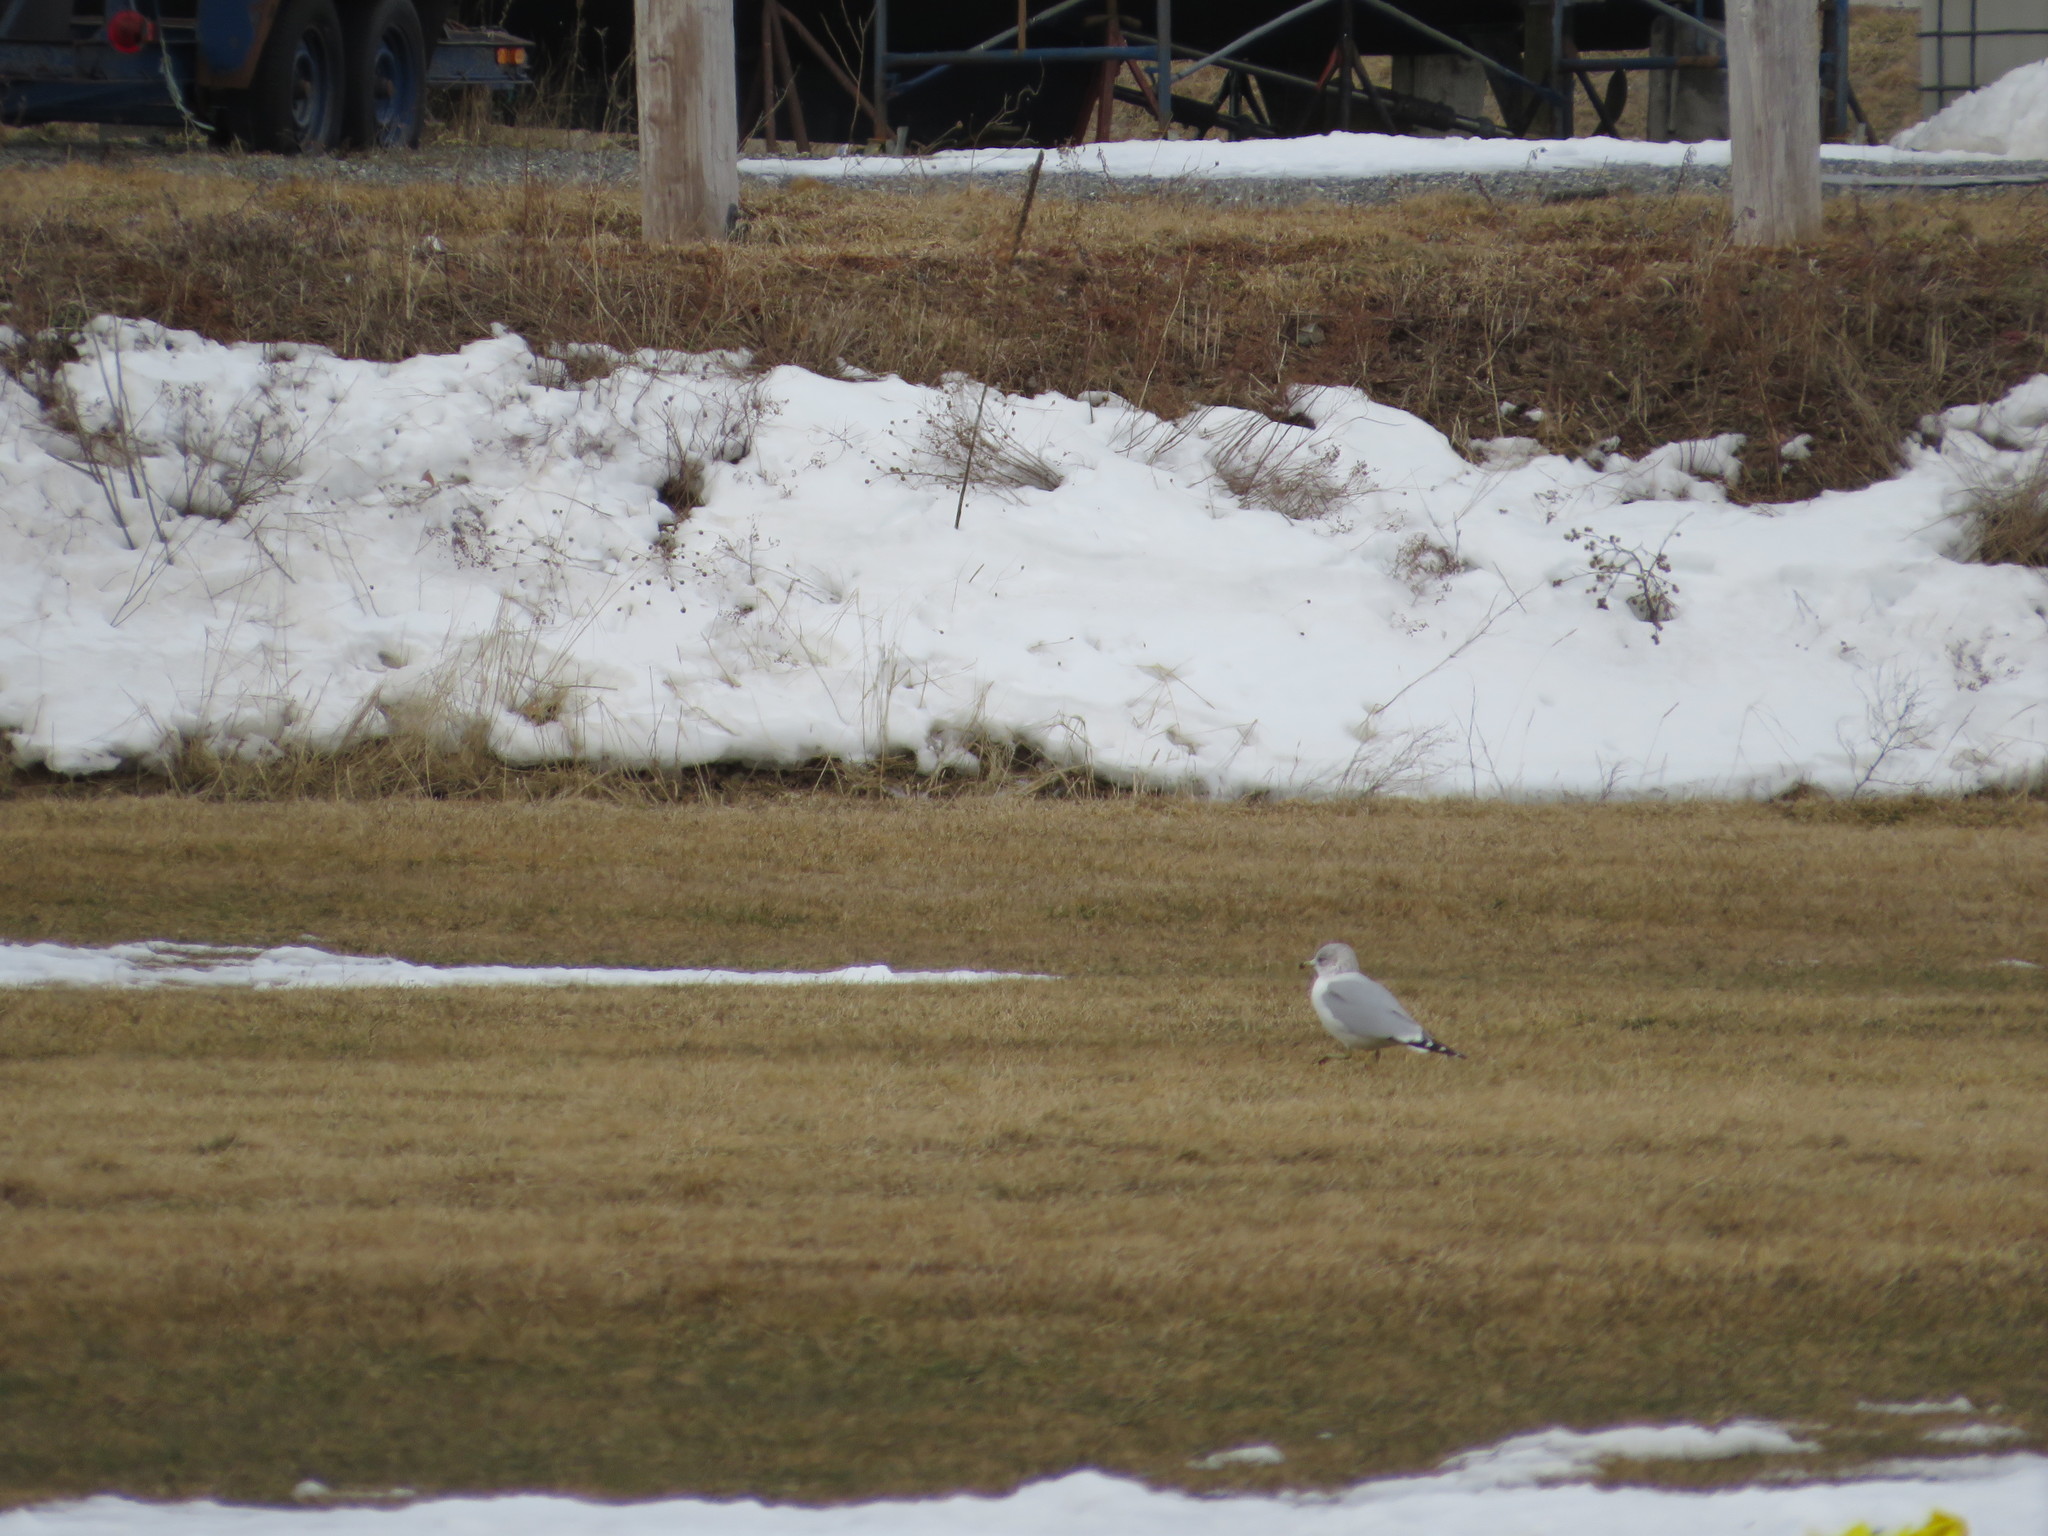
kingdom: Animalia
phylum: Chordata
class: Aves
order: Charadriiformes
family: Laridae
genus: Larus
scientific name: Larus delawarensis
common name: Ring-billed gull
